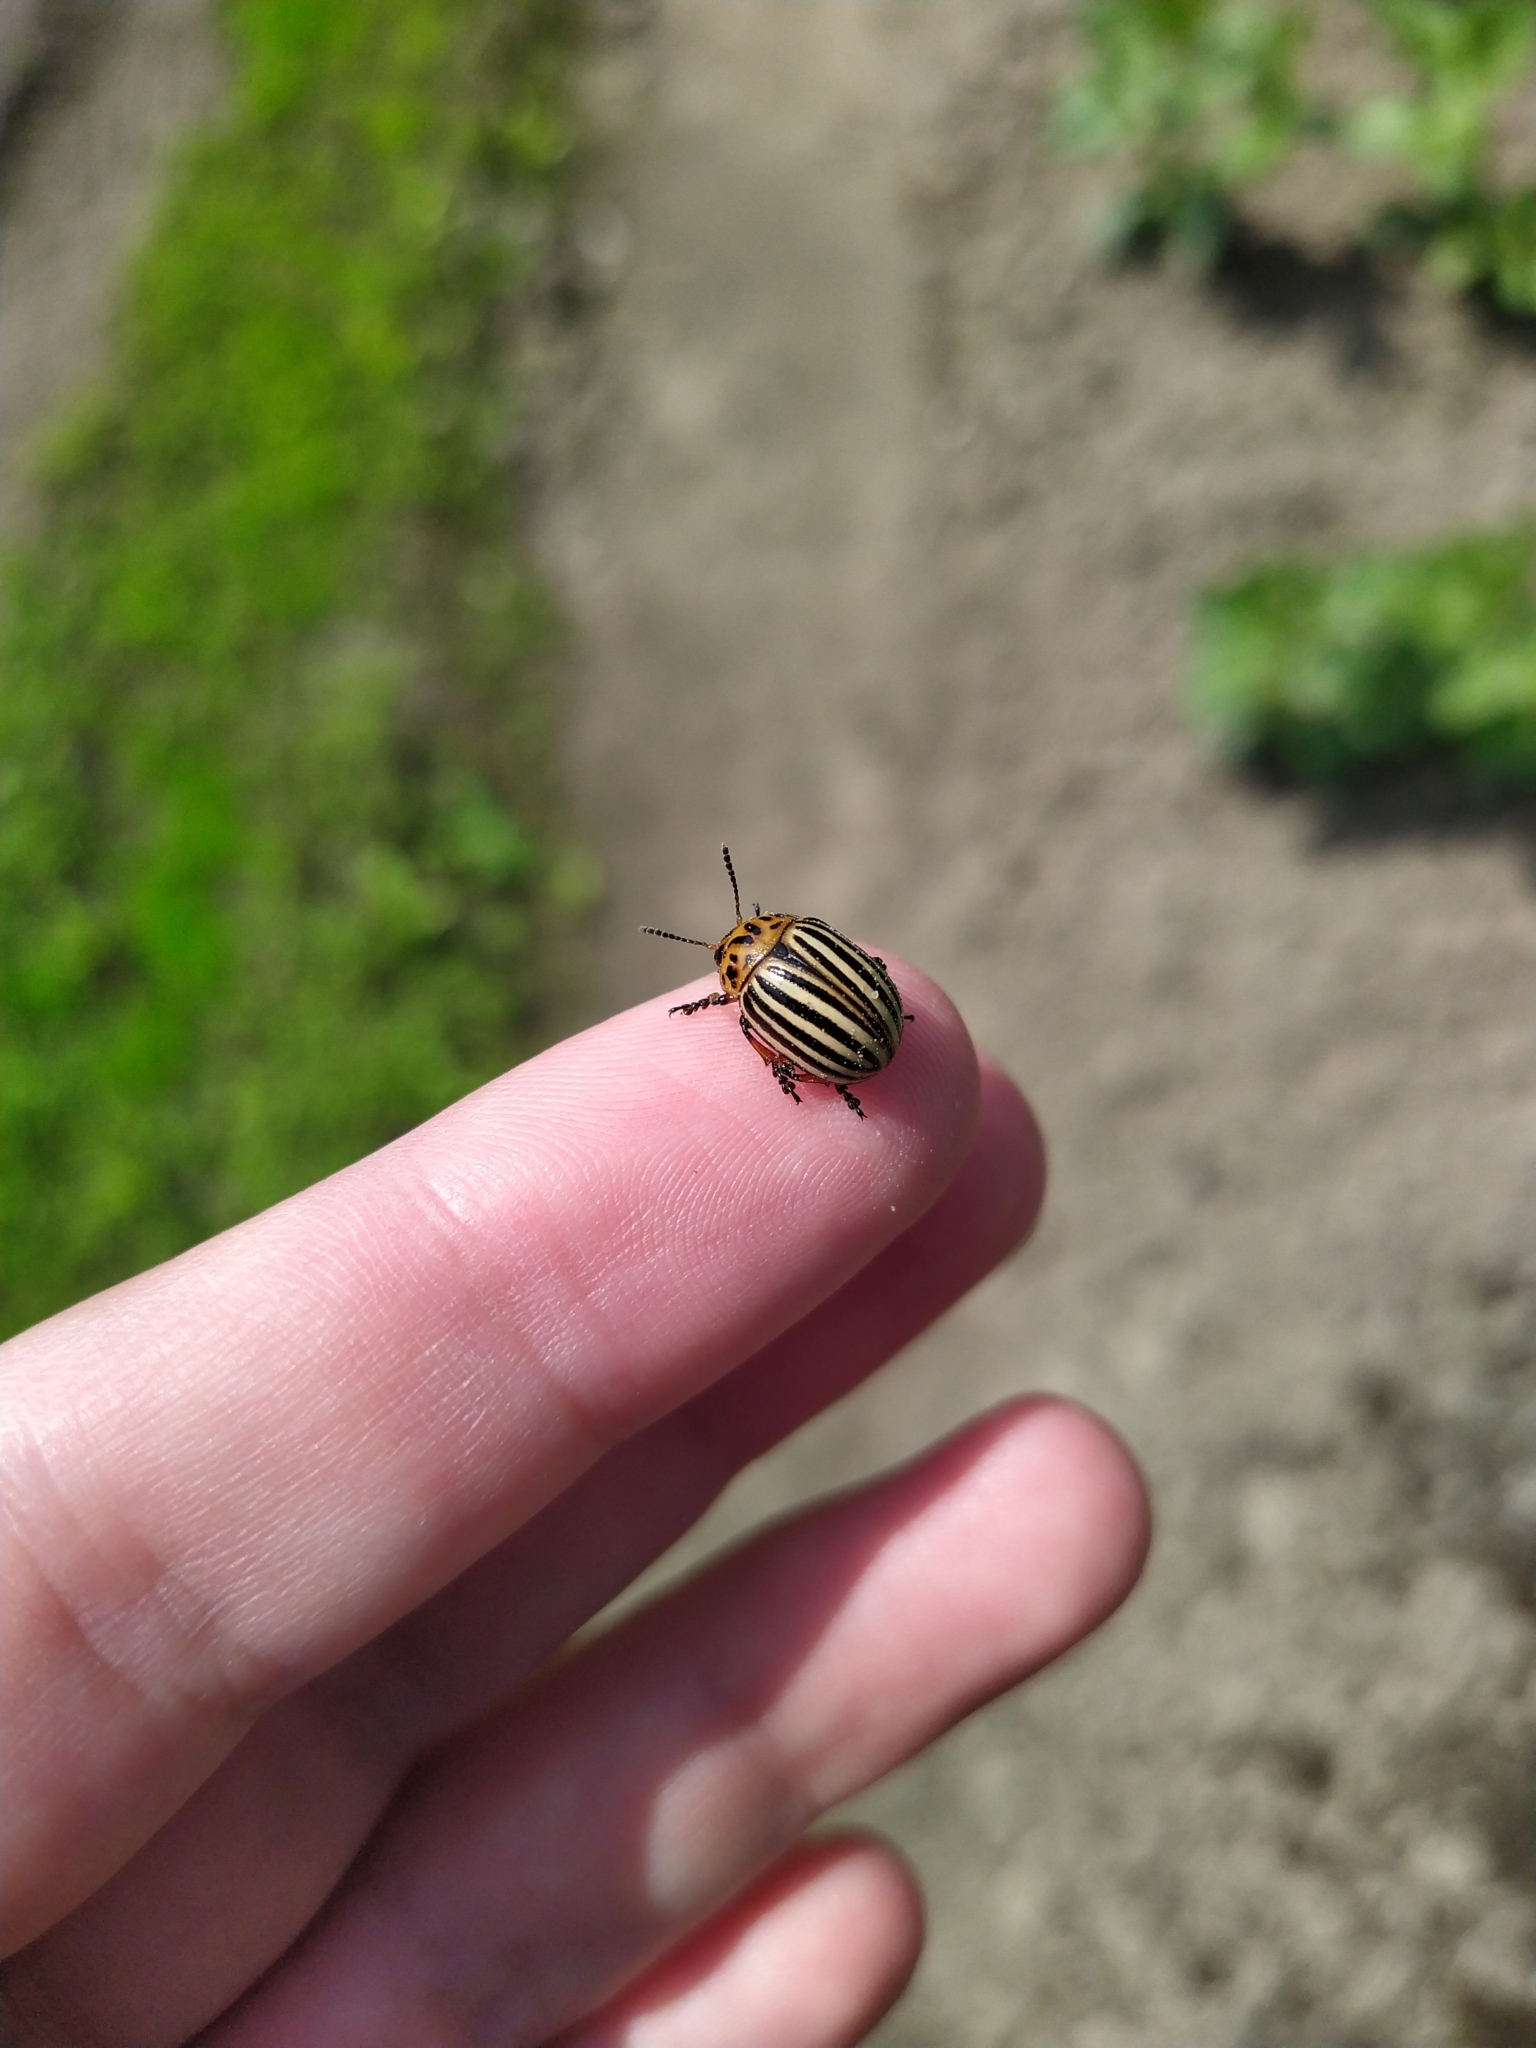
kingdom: Animalia
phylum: Arthropoda
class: Insecta
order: Coleoptera
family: Chrysomelidae
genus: Leptinotarsa
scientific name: Leptinotarsa decemlineata
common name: Colorado potato beetle
